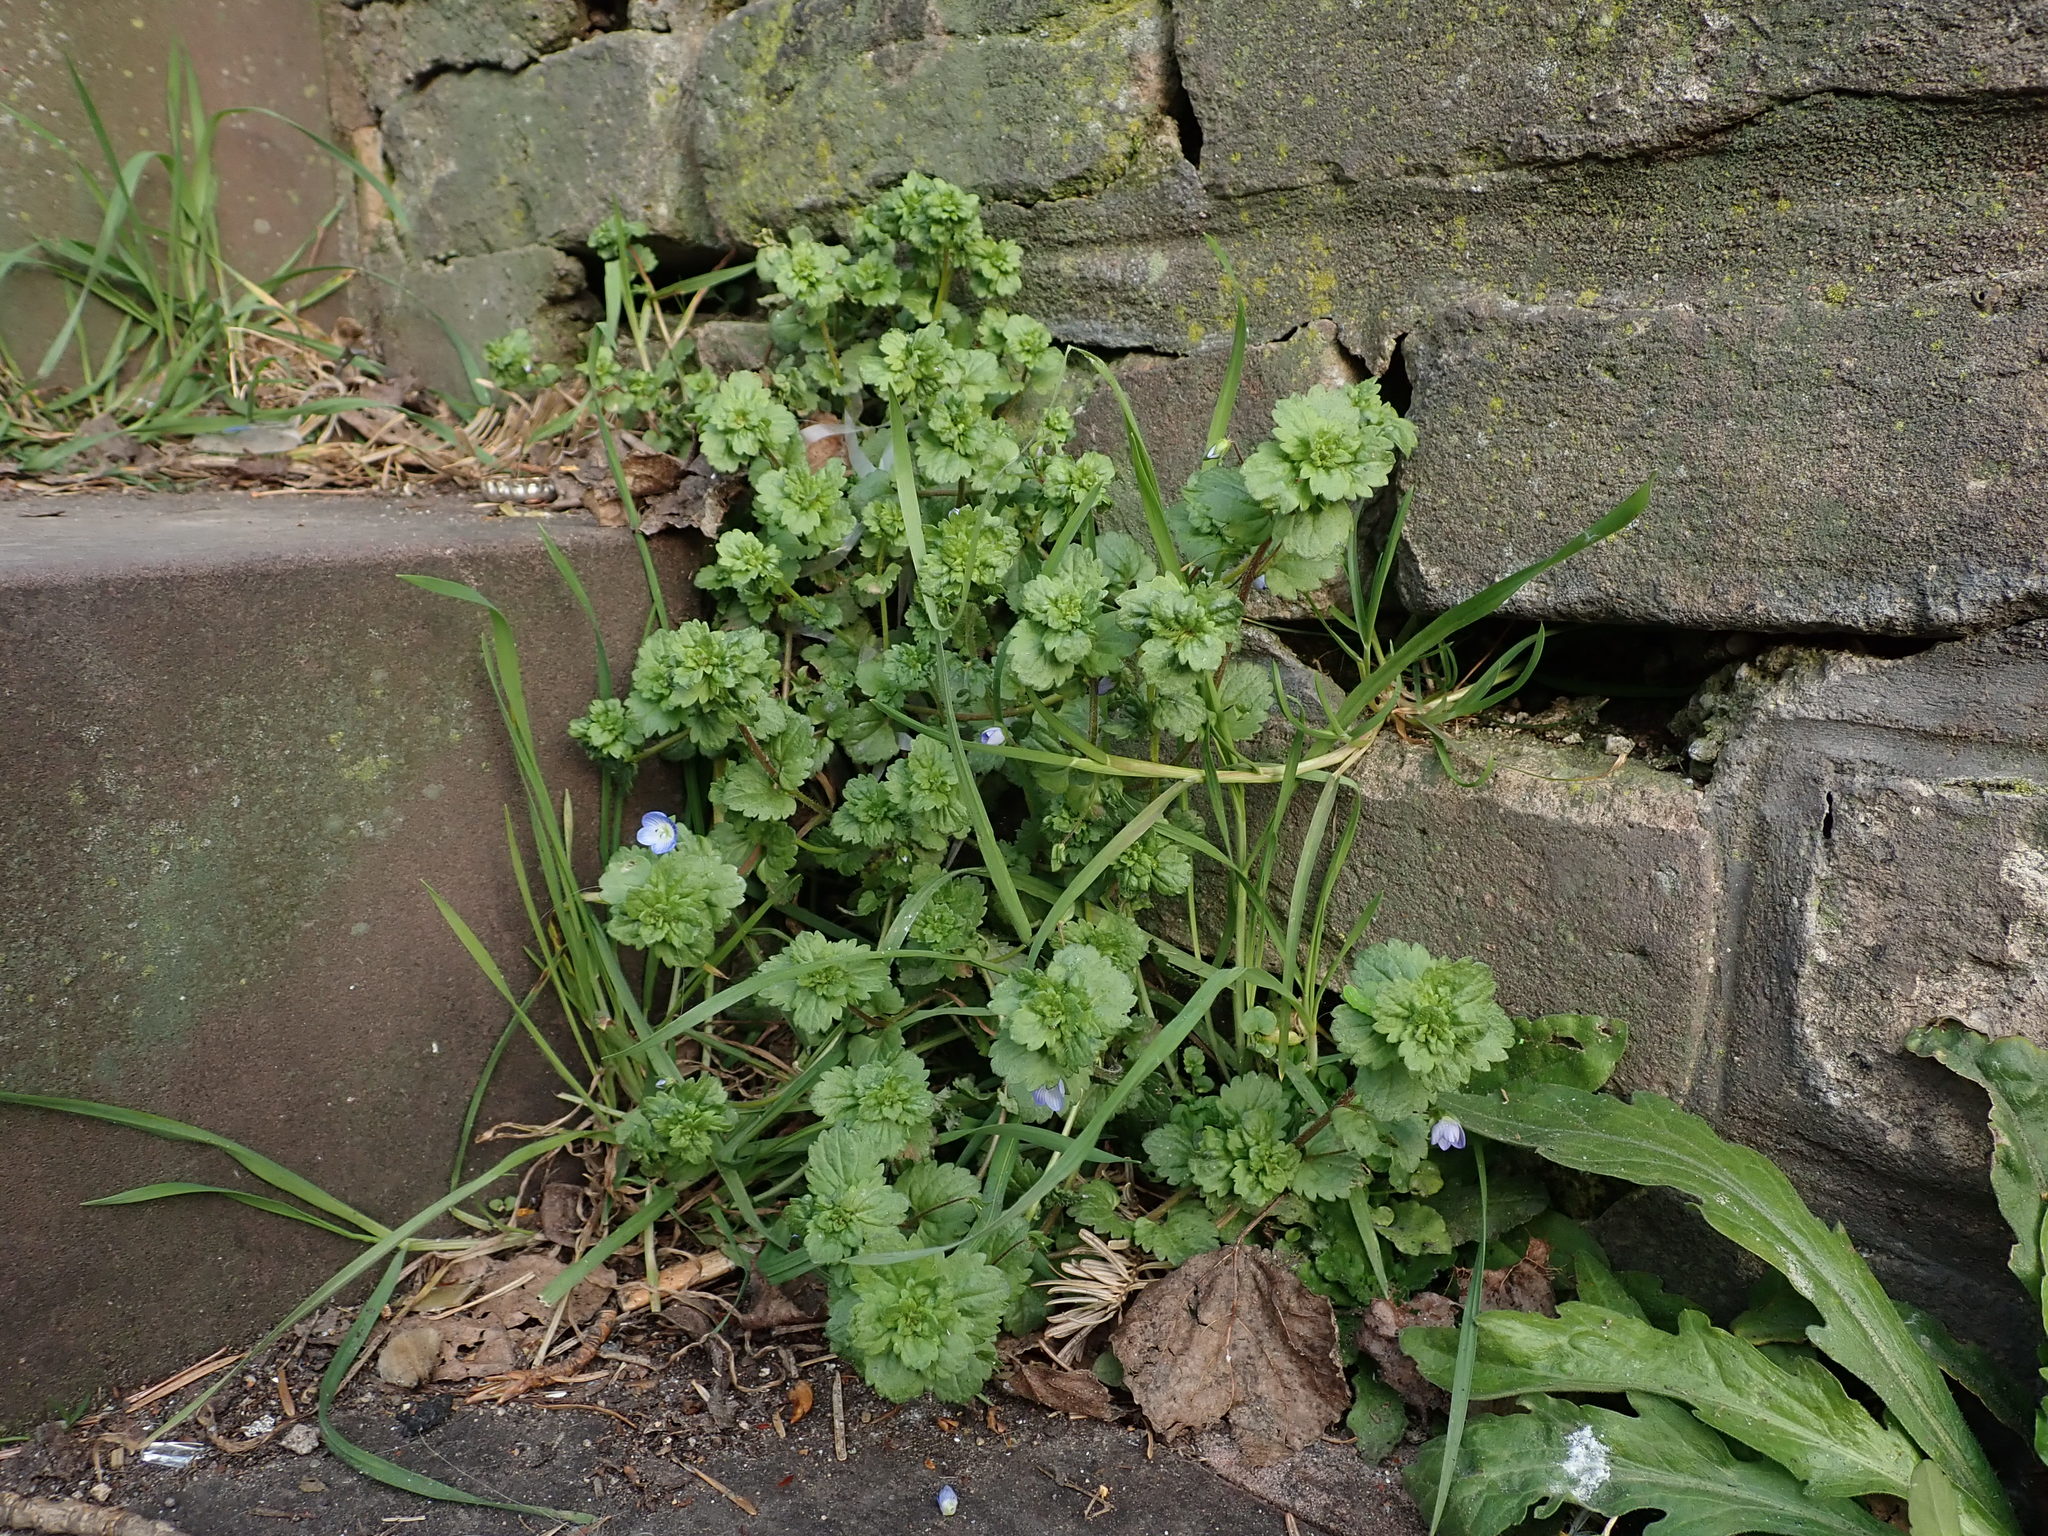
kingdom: Plantae
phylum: Tracheophyta
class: Magnoliopsida
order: Lamiales
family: Plantaginaceae
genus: Veronica
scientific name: Veronica persica
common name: Common field-speedwell
